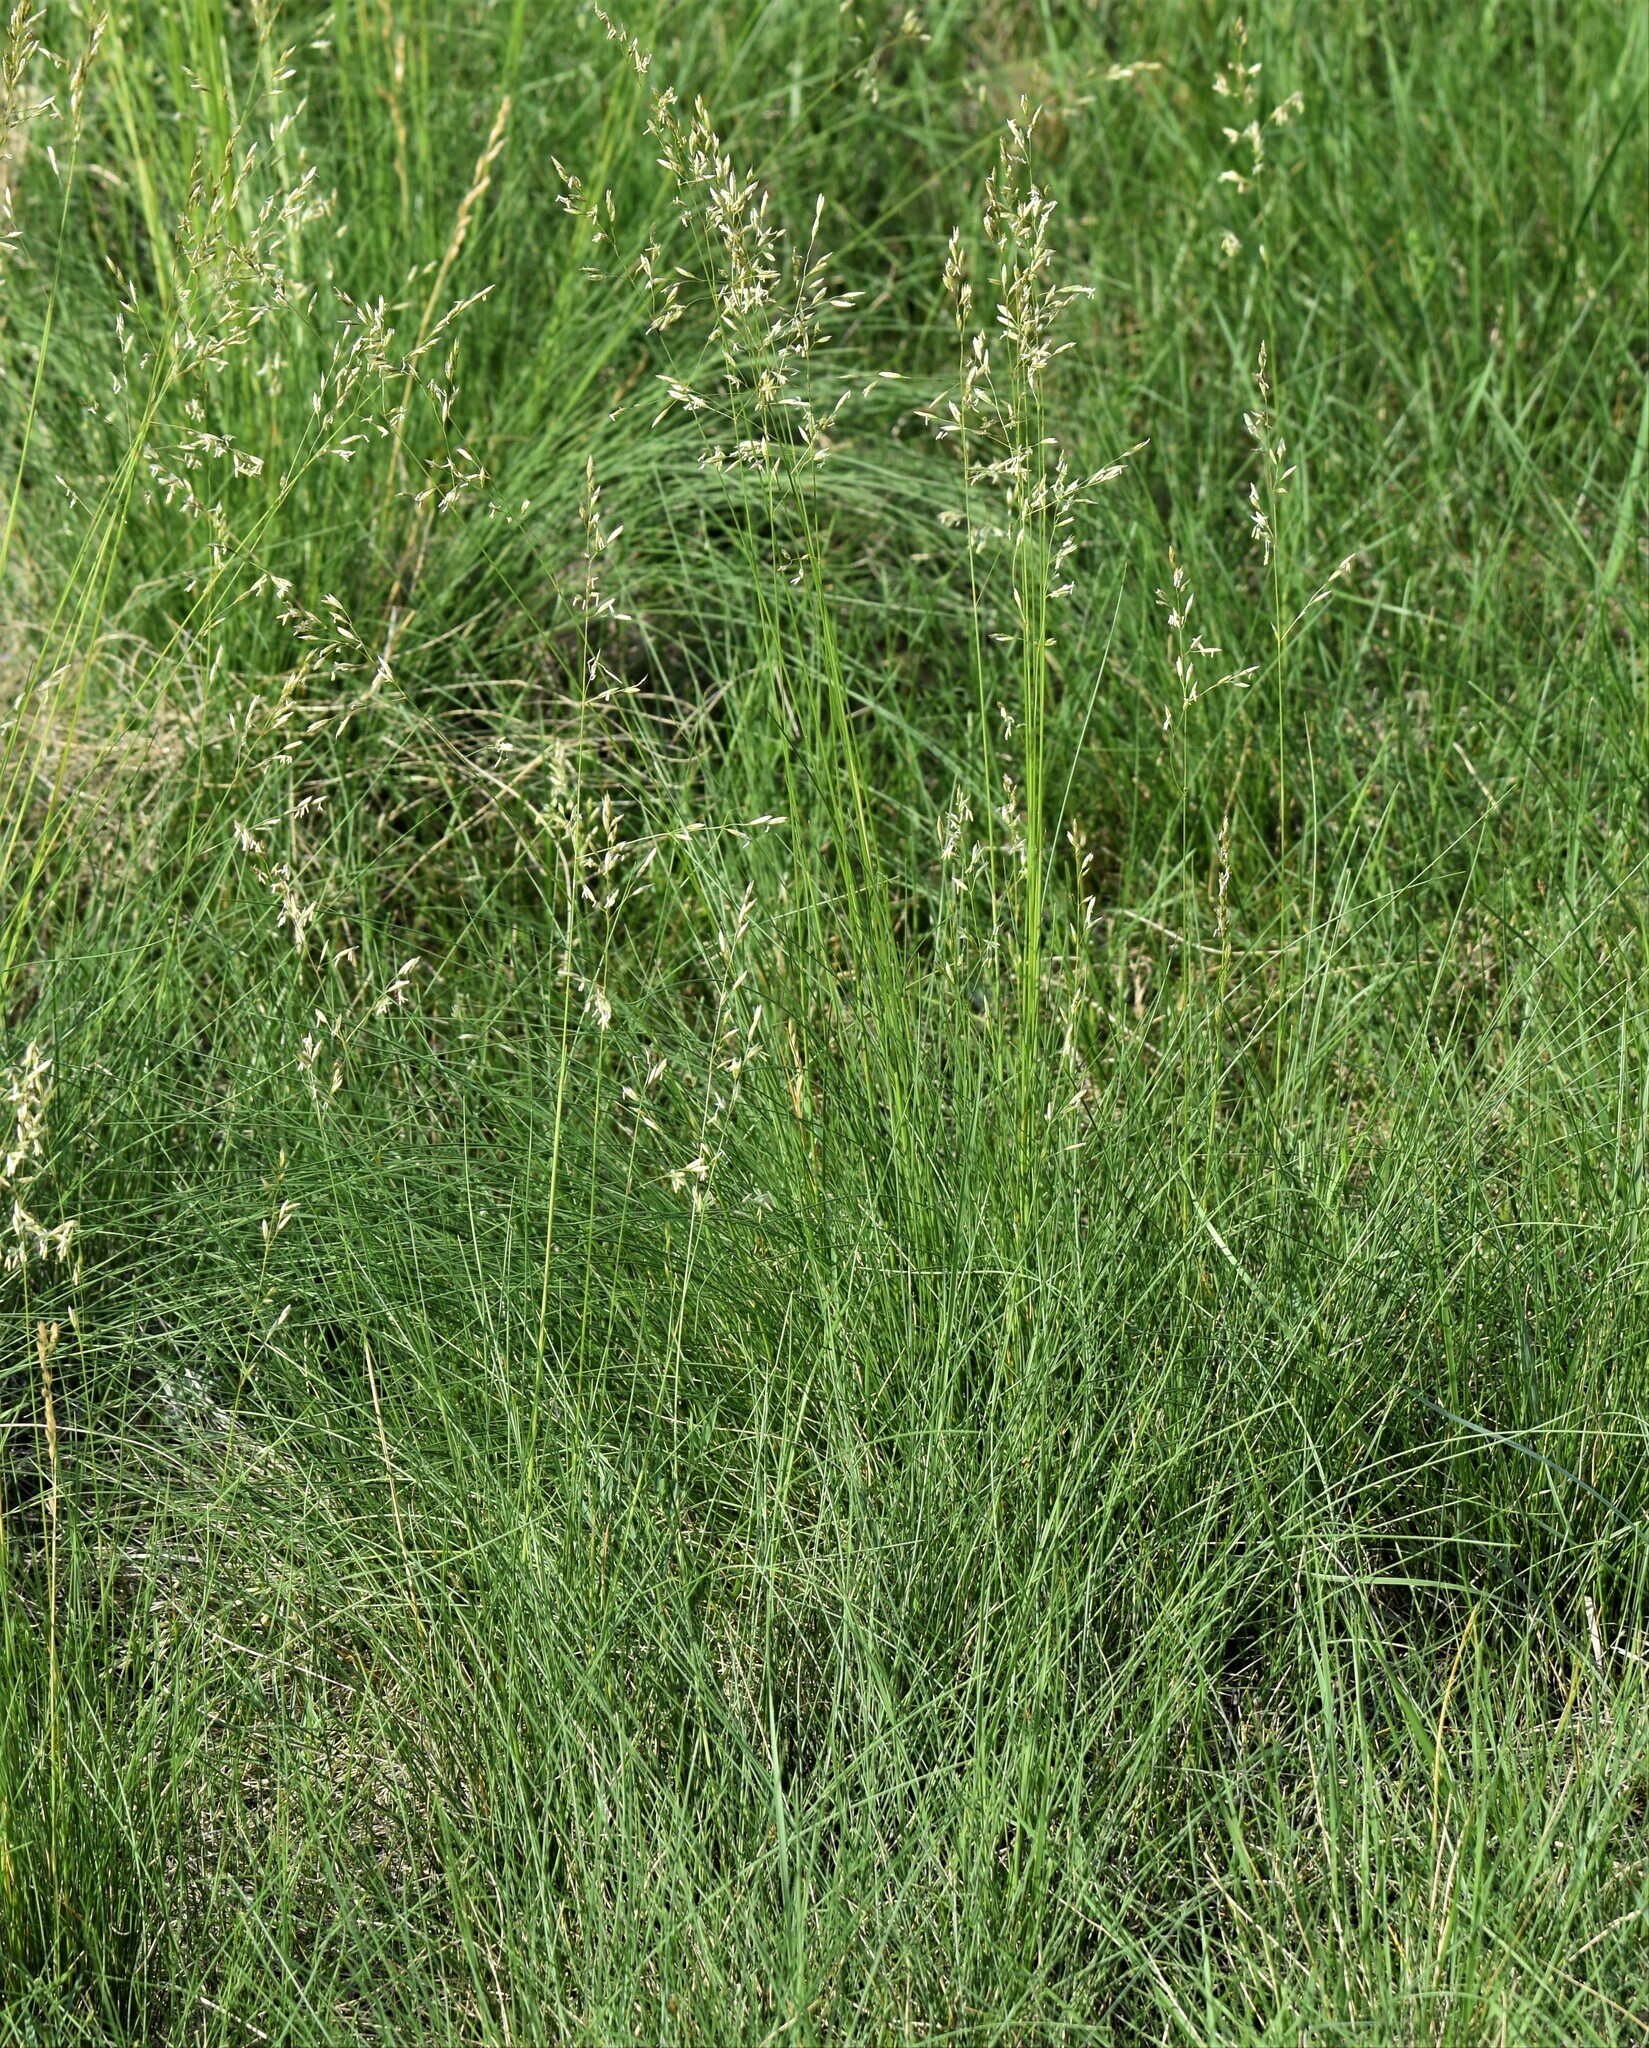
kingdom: Plantae
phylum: Tracheophyta
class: Liliopsida
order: Poales
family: Poaceae
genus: Festuca
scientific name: Festuca hallii
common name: Hall's fescue
